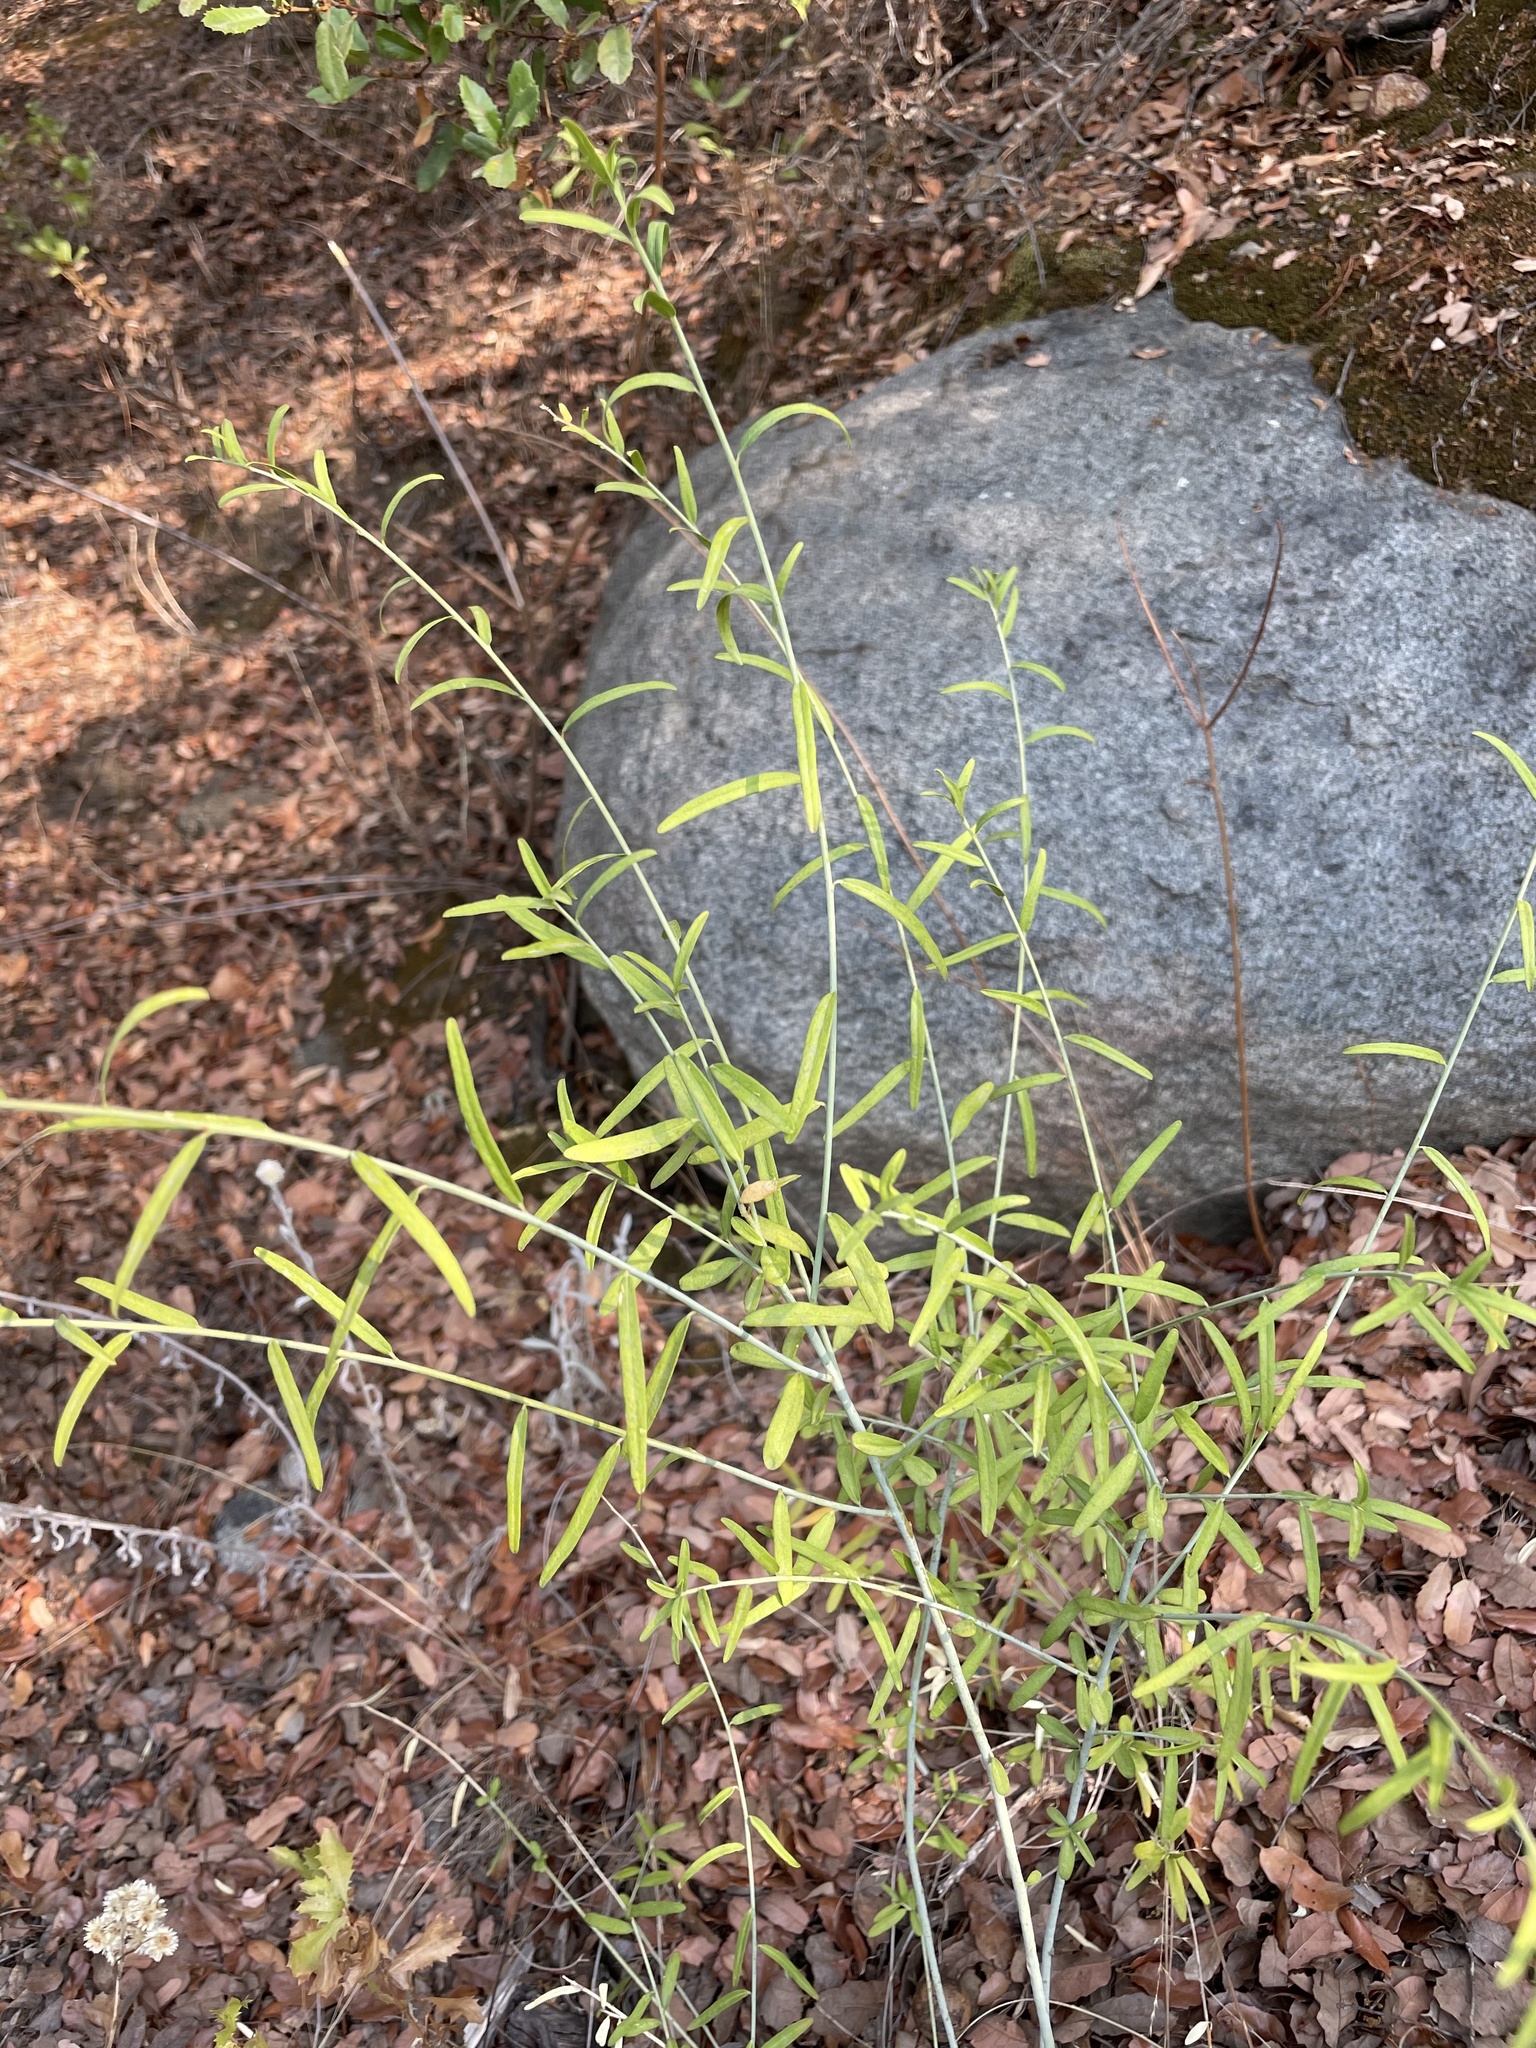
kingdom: Plantae
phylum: Tracheophyta
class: Magnoliopsida
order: Fabales
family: Polygalaceae
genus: Rhinotropis
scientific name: Rhinotropis cornuta
